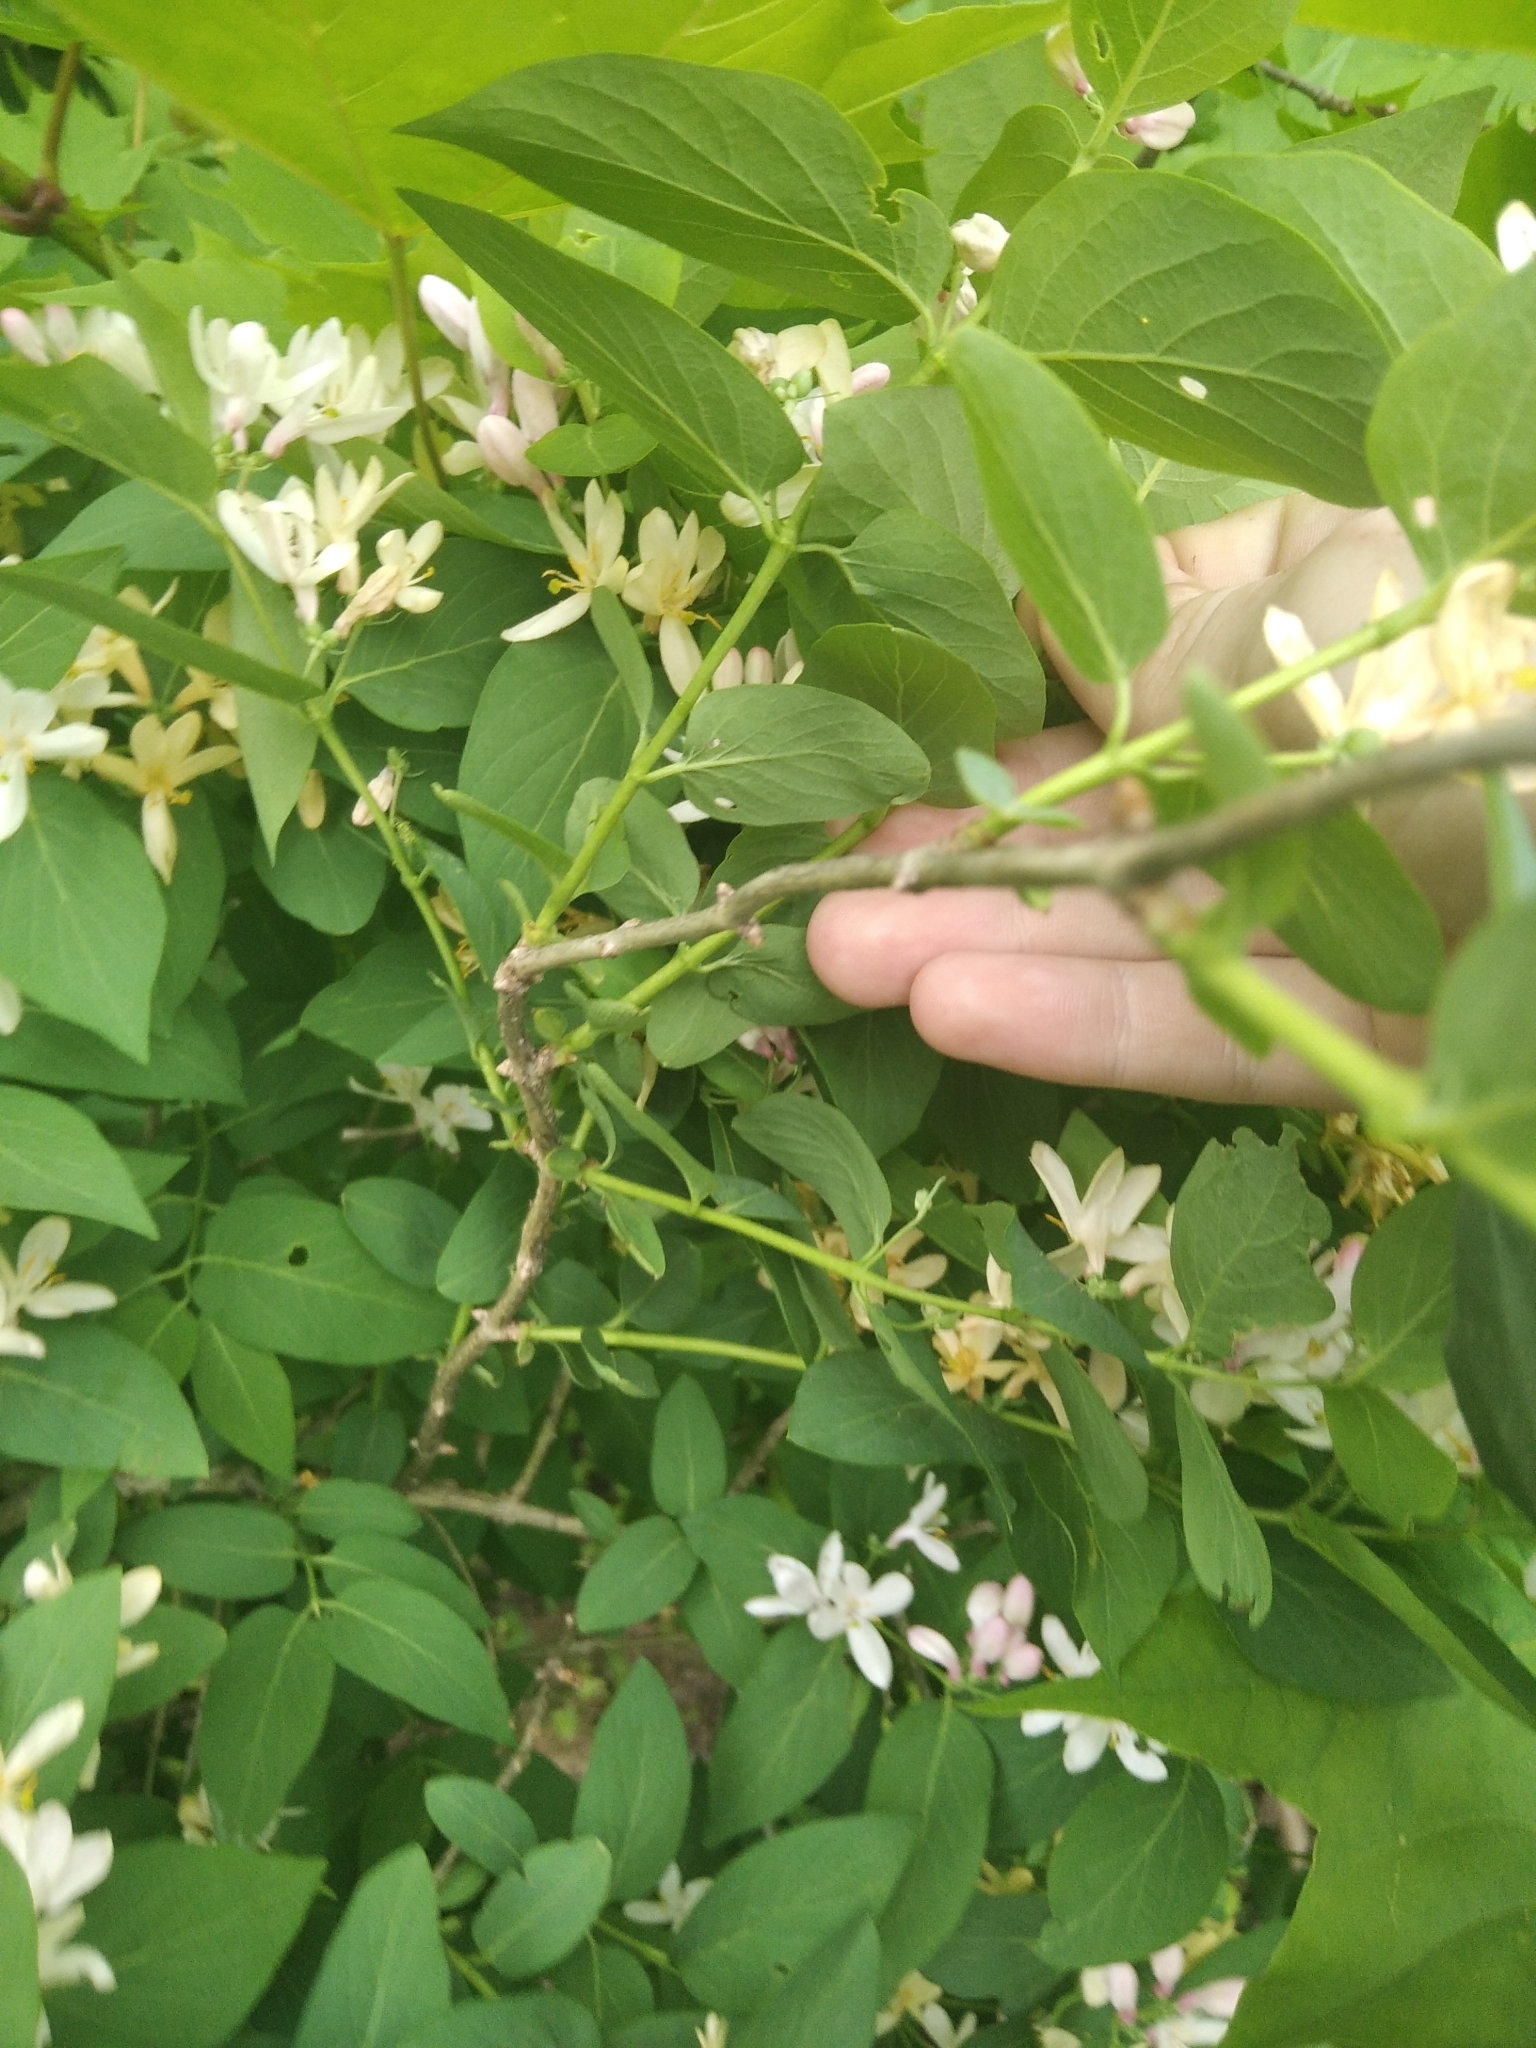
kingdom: Plantae
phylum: Tracheophyta
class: Magnoliopsida
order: Dipsacales
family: Caprifoliaceae
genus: Lonicera
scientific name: Lonicera tatarica
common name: Tatarian honeysuckle
